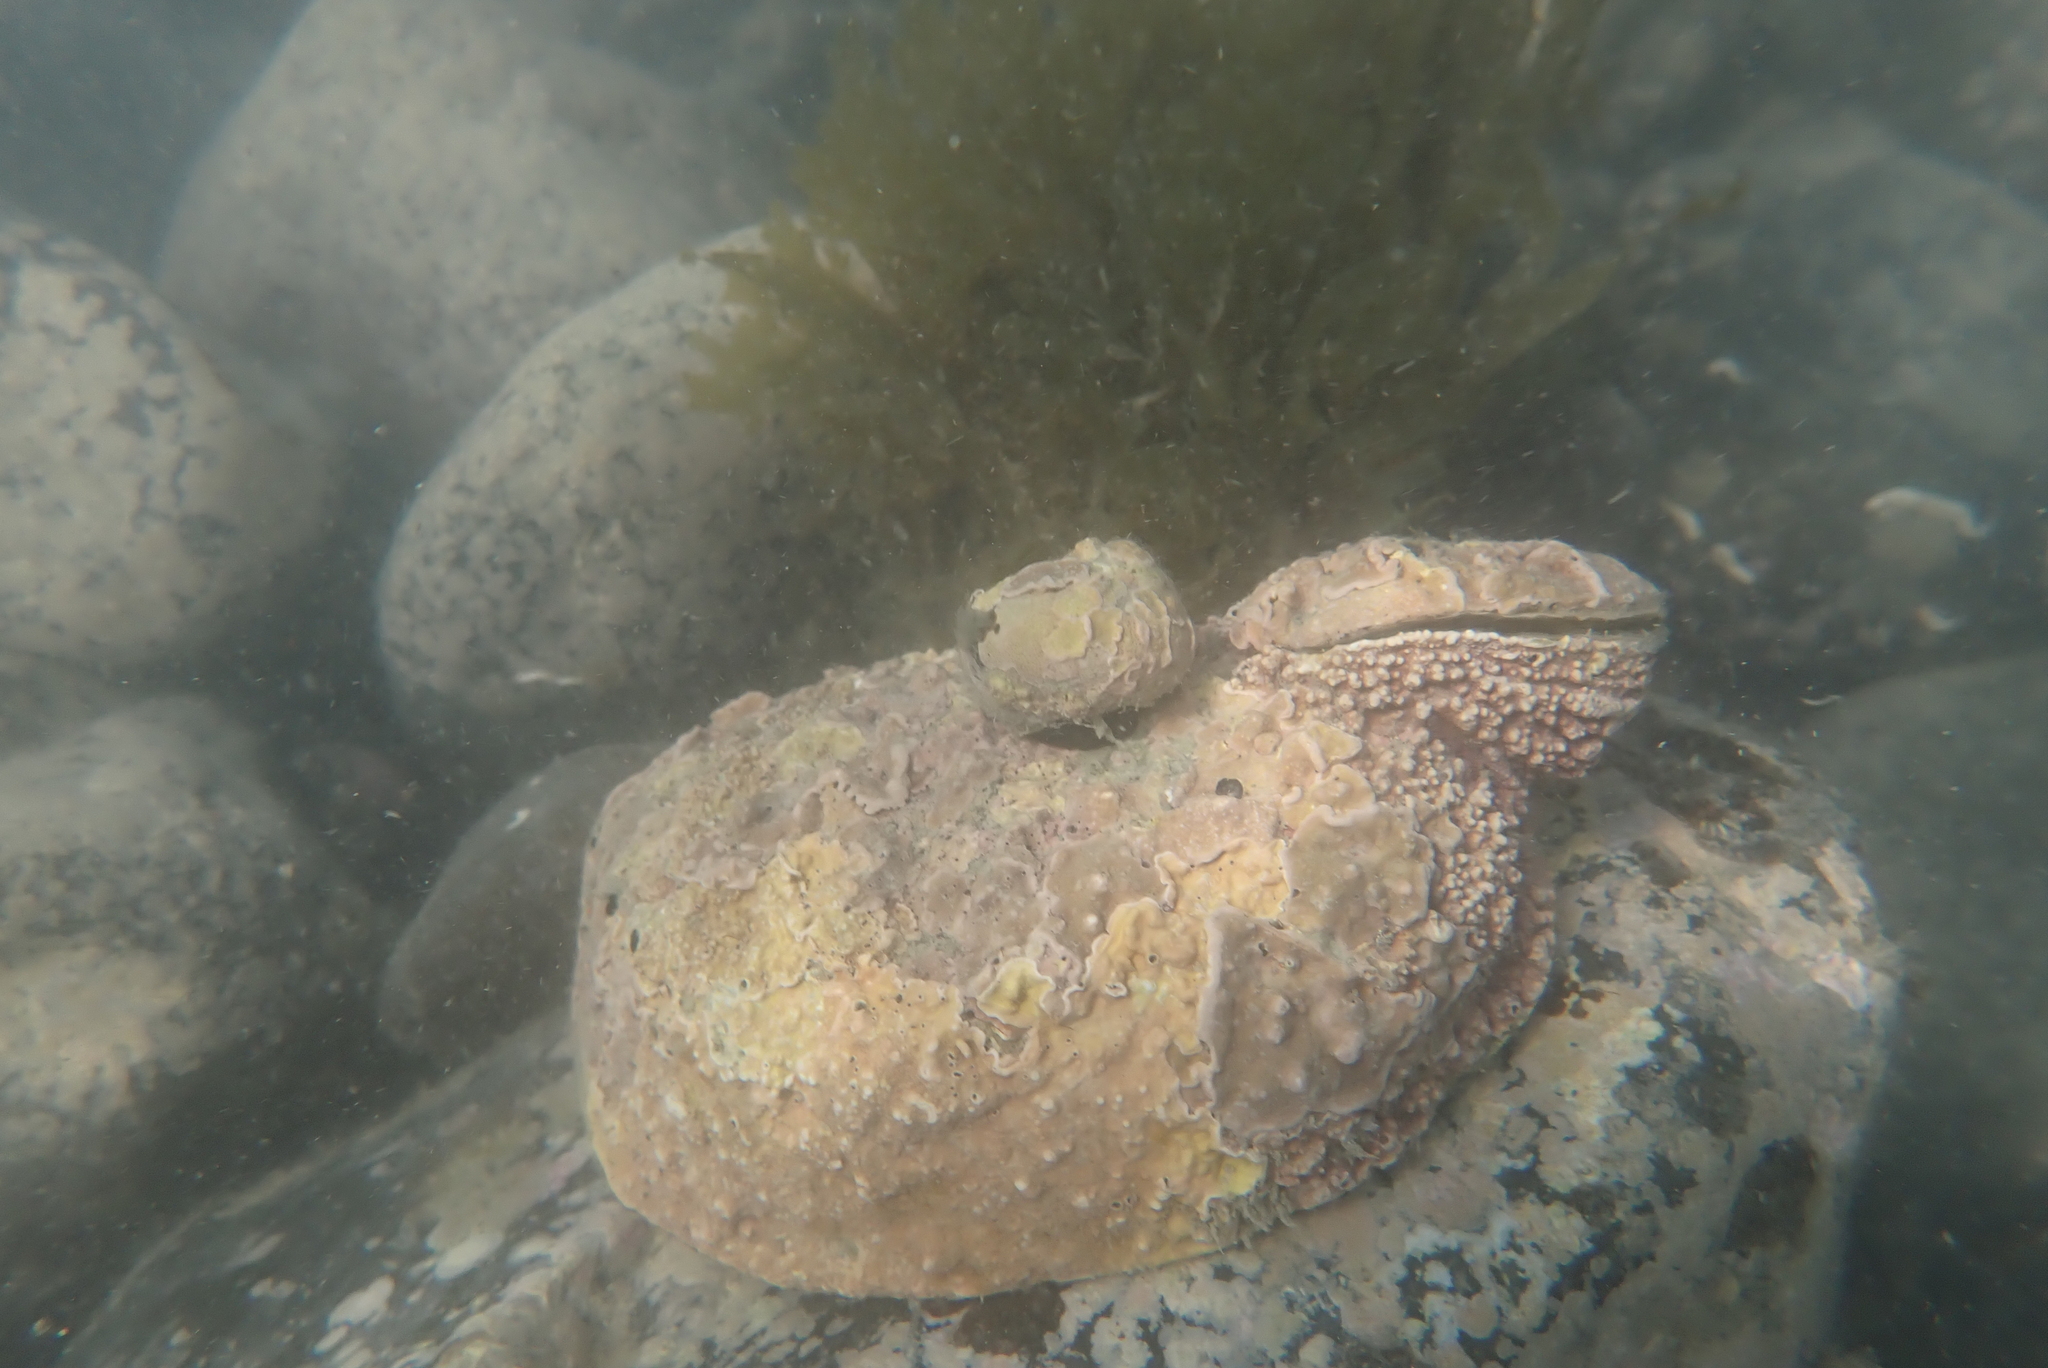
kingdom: Animalia
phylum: Mollusca
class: Gastropoda
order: Lepetellida
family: Haliotidae
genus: Haliotis
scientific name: Haliotis iris
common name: Abalone
